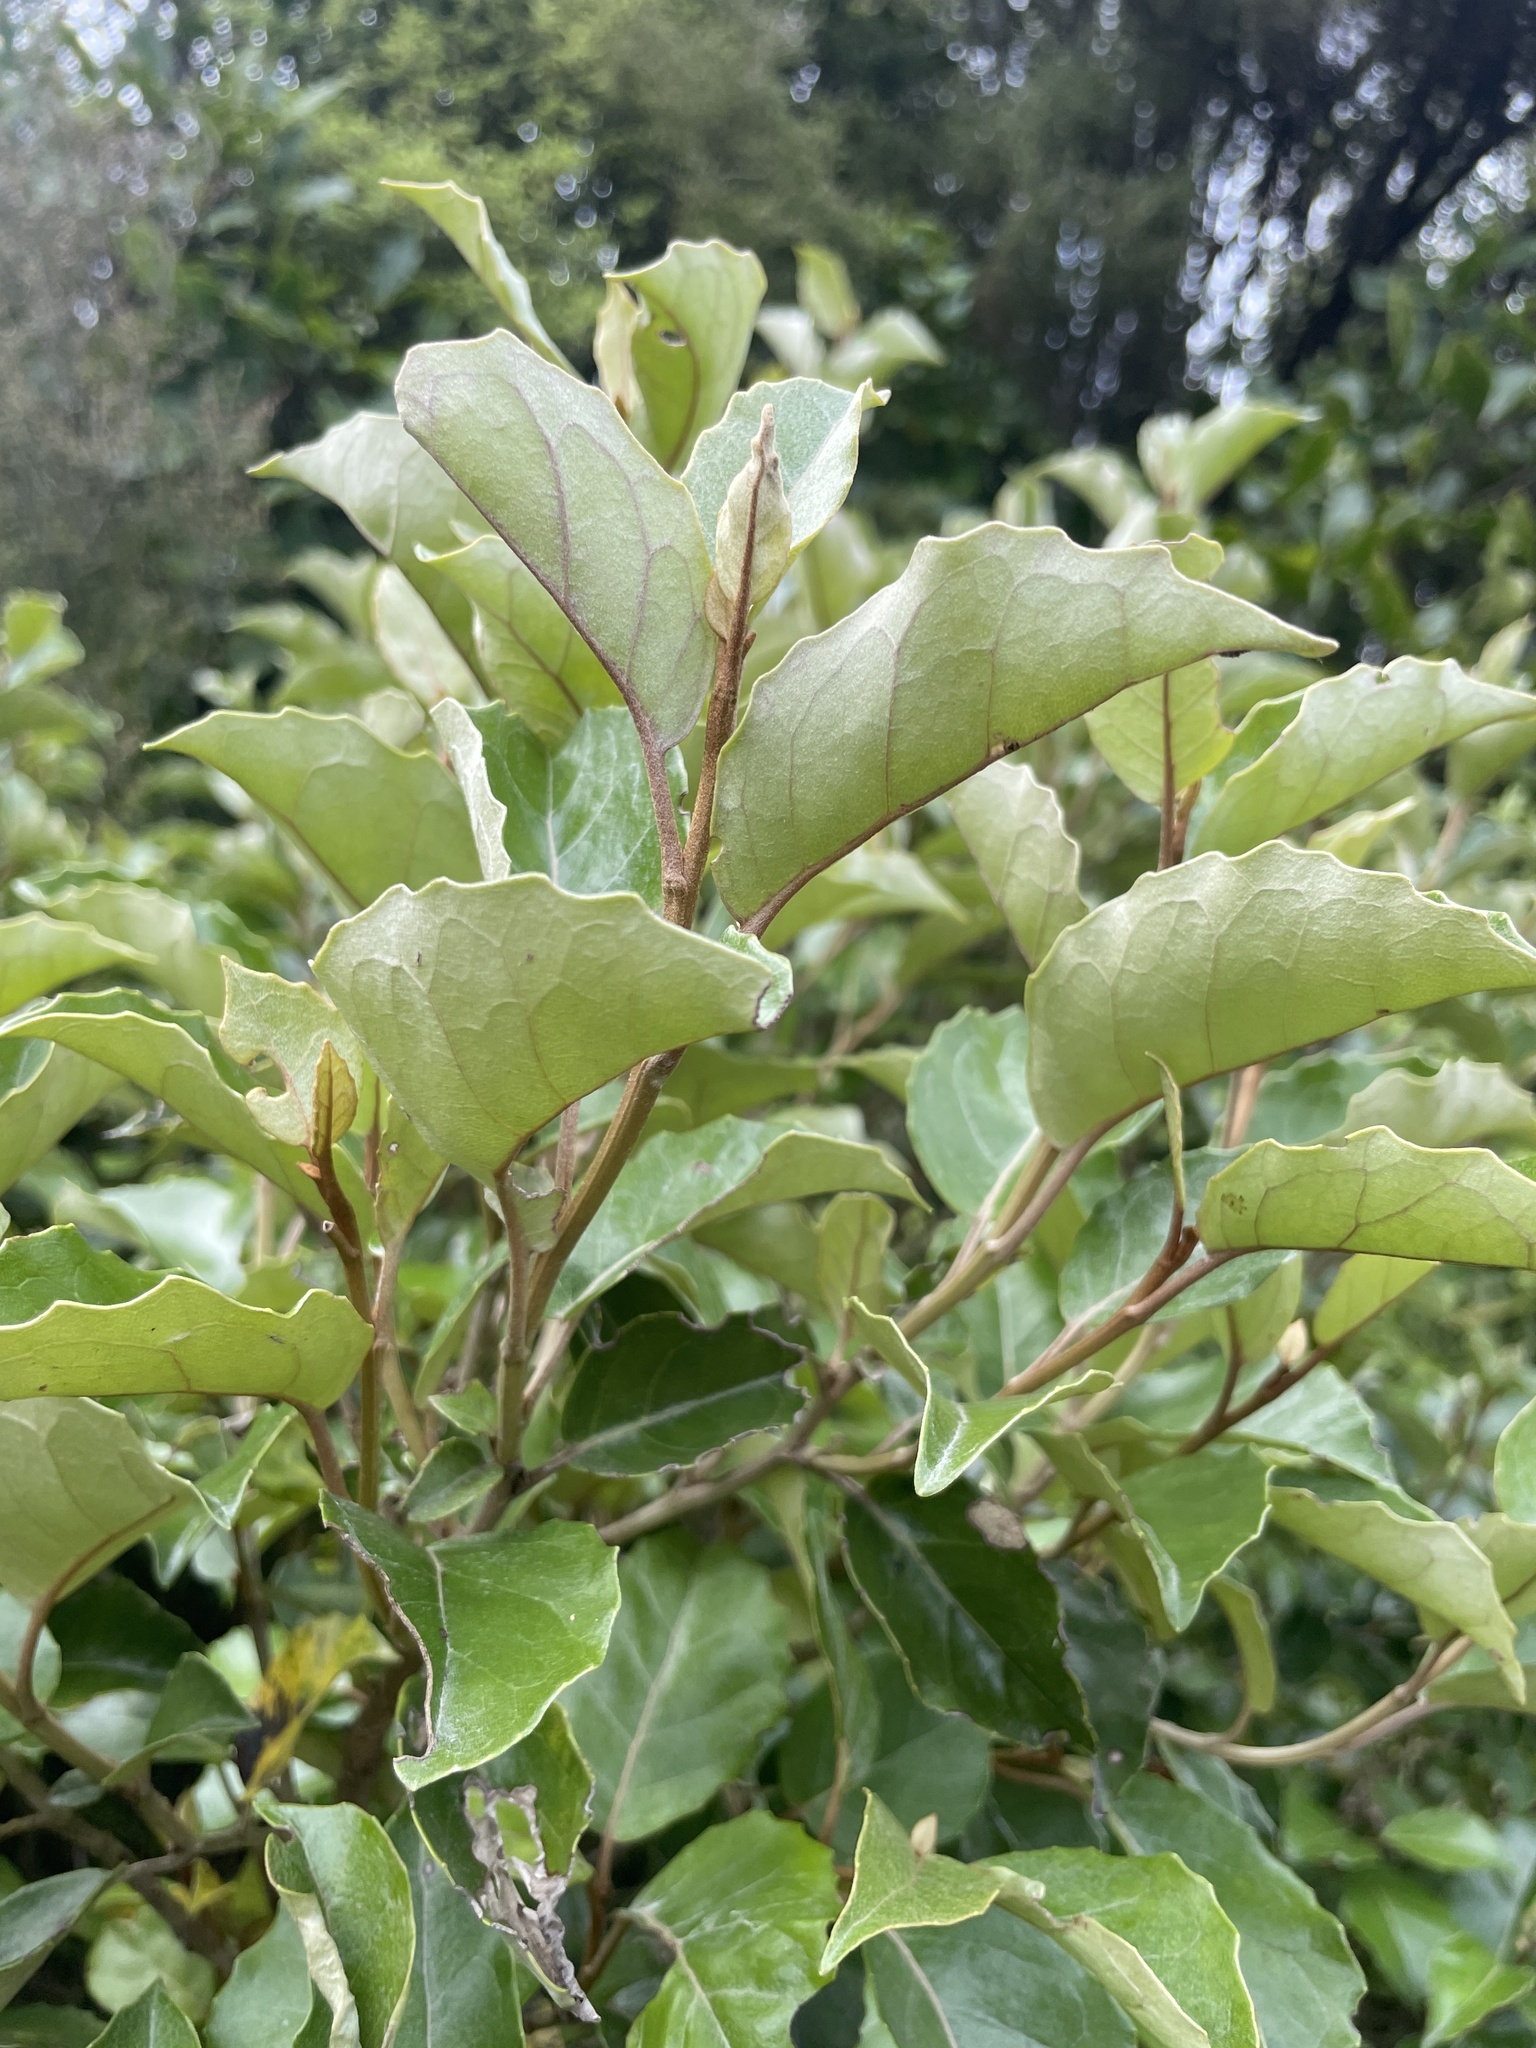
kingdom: Plantae
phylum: Tracheophyta
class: Magnoliopsida
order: Asterales
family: Asteraceae
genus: Olearia
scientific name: Olearia arborescens
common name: Glossy tree daisy
